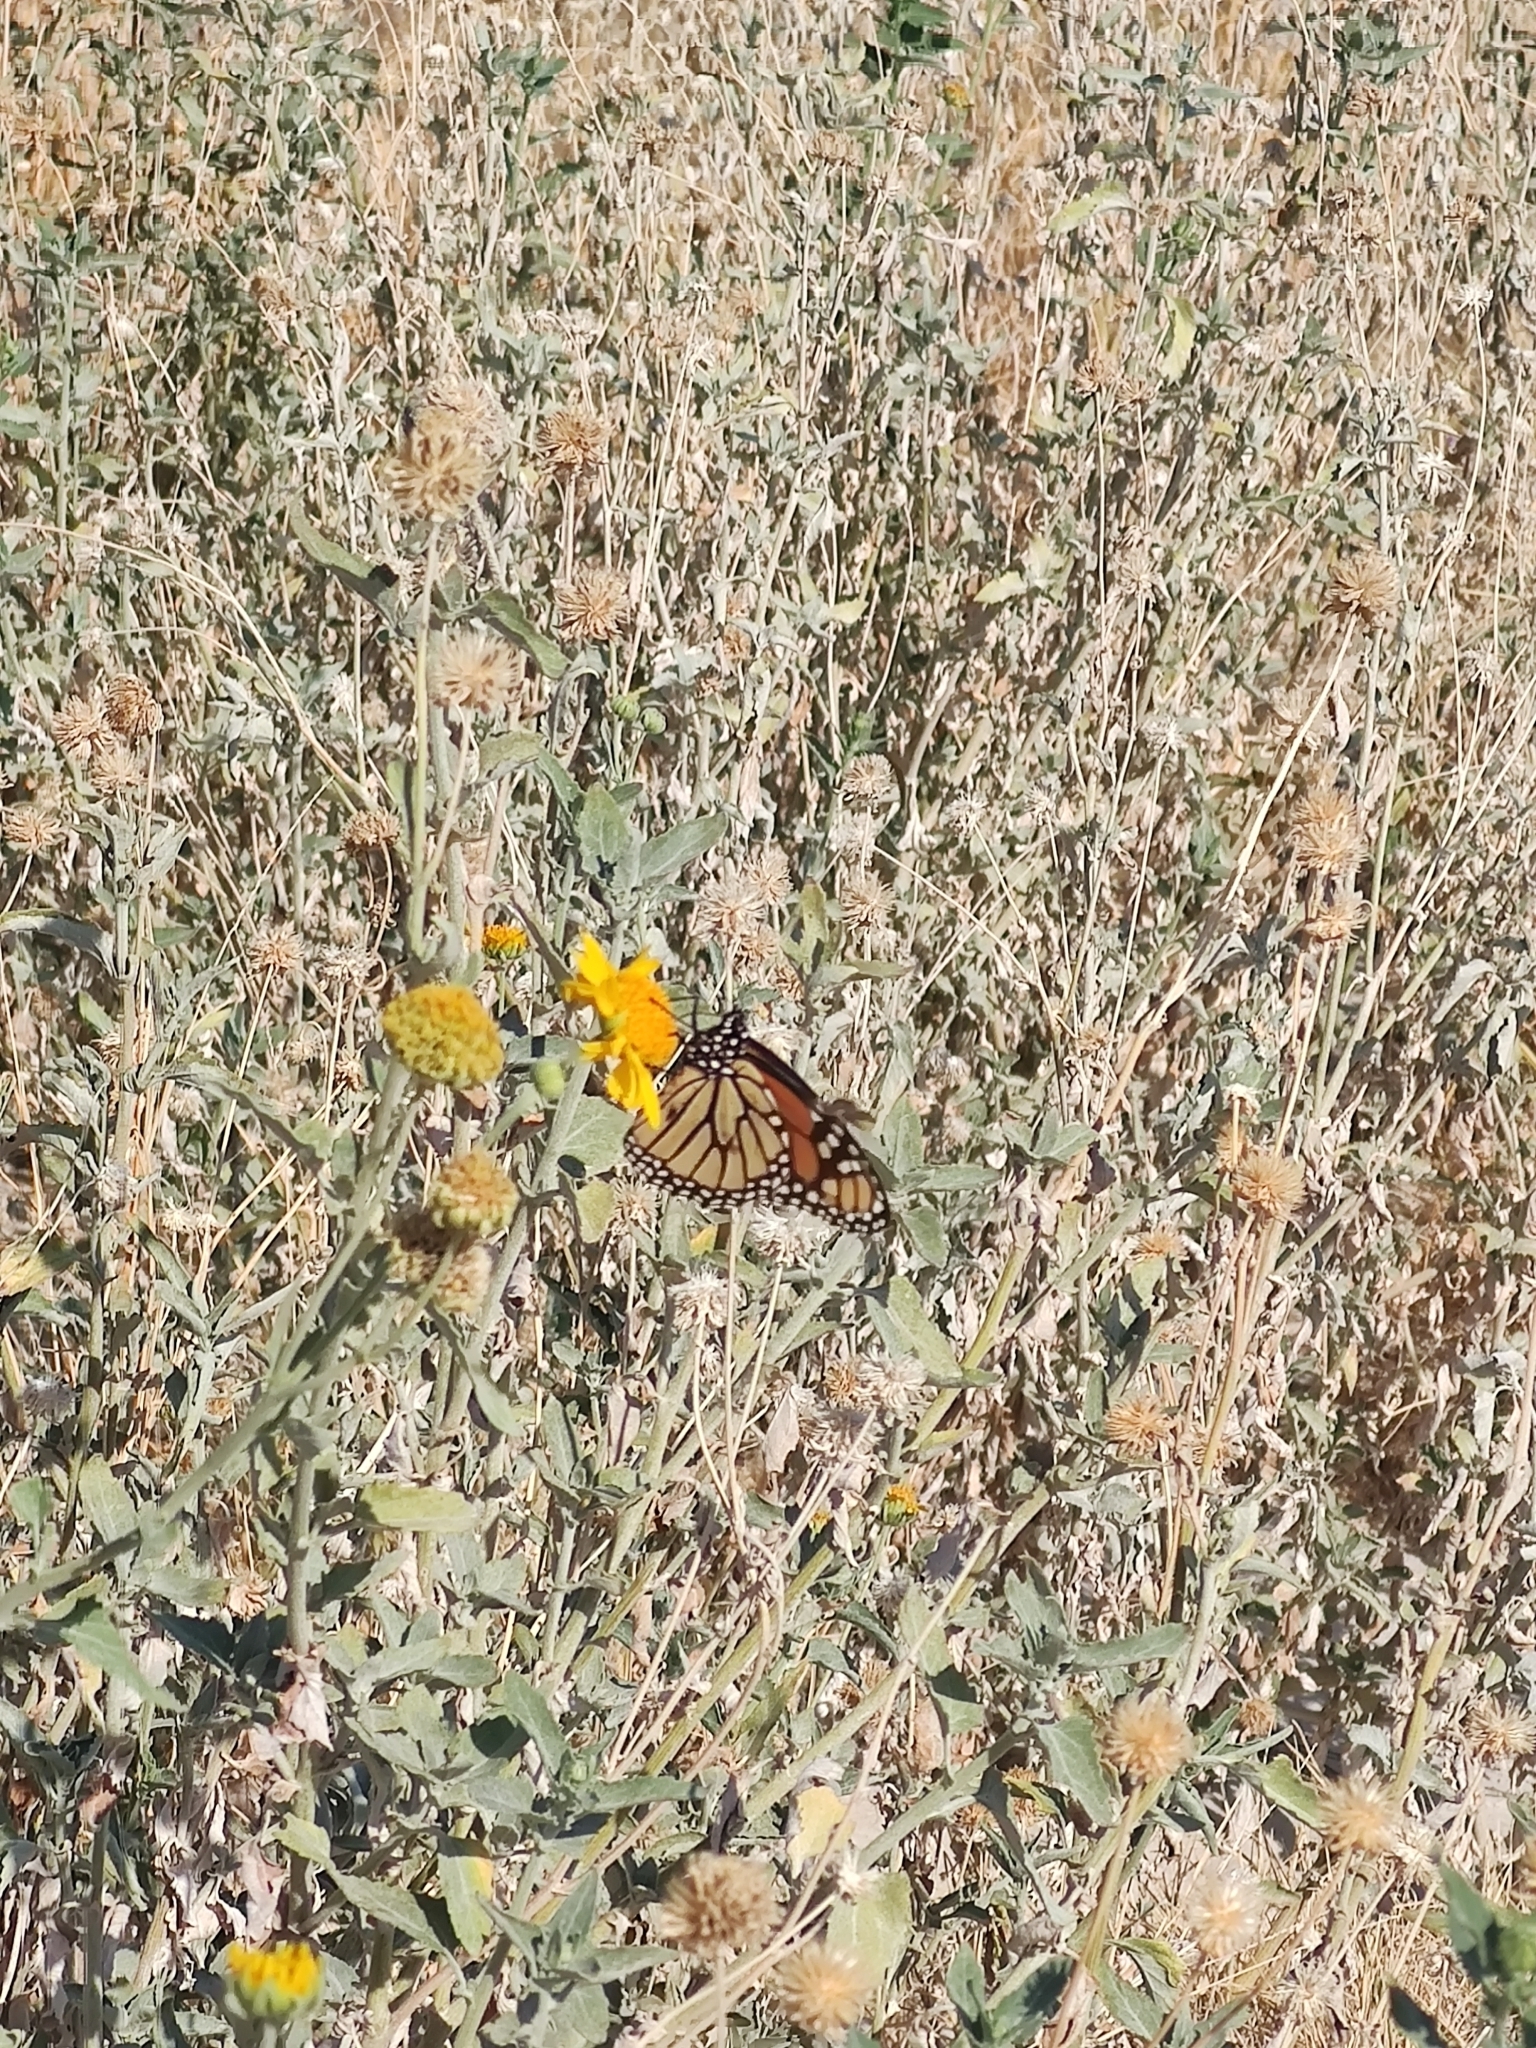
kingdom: Animalia
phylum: Arthropoda
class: Insecta
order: Lepidoptera
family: Nymphalidae
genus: Danaus
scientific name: Danaus plexippus
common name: Monarch
